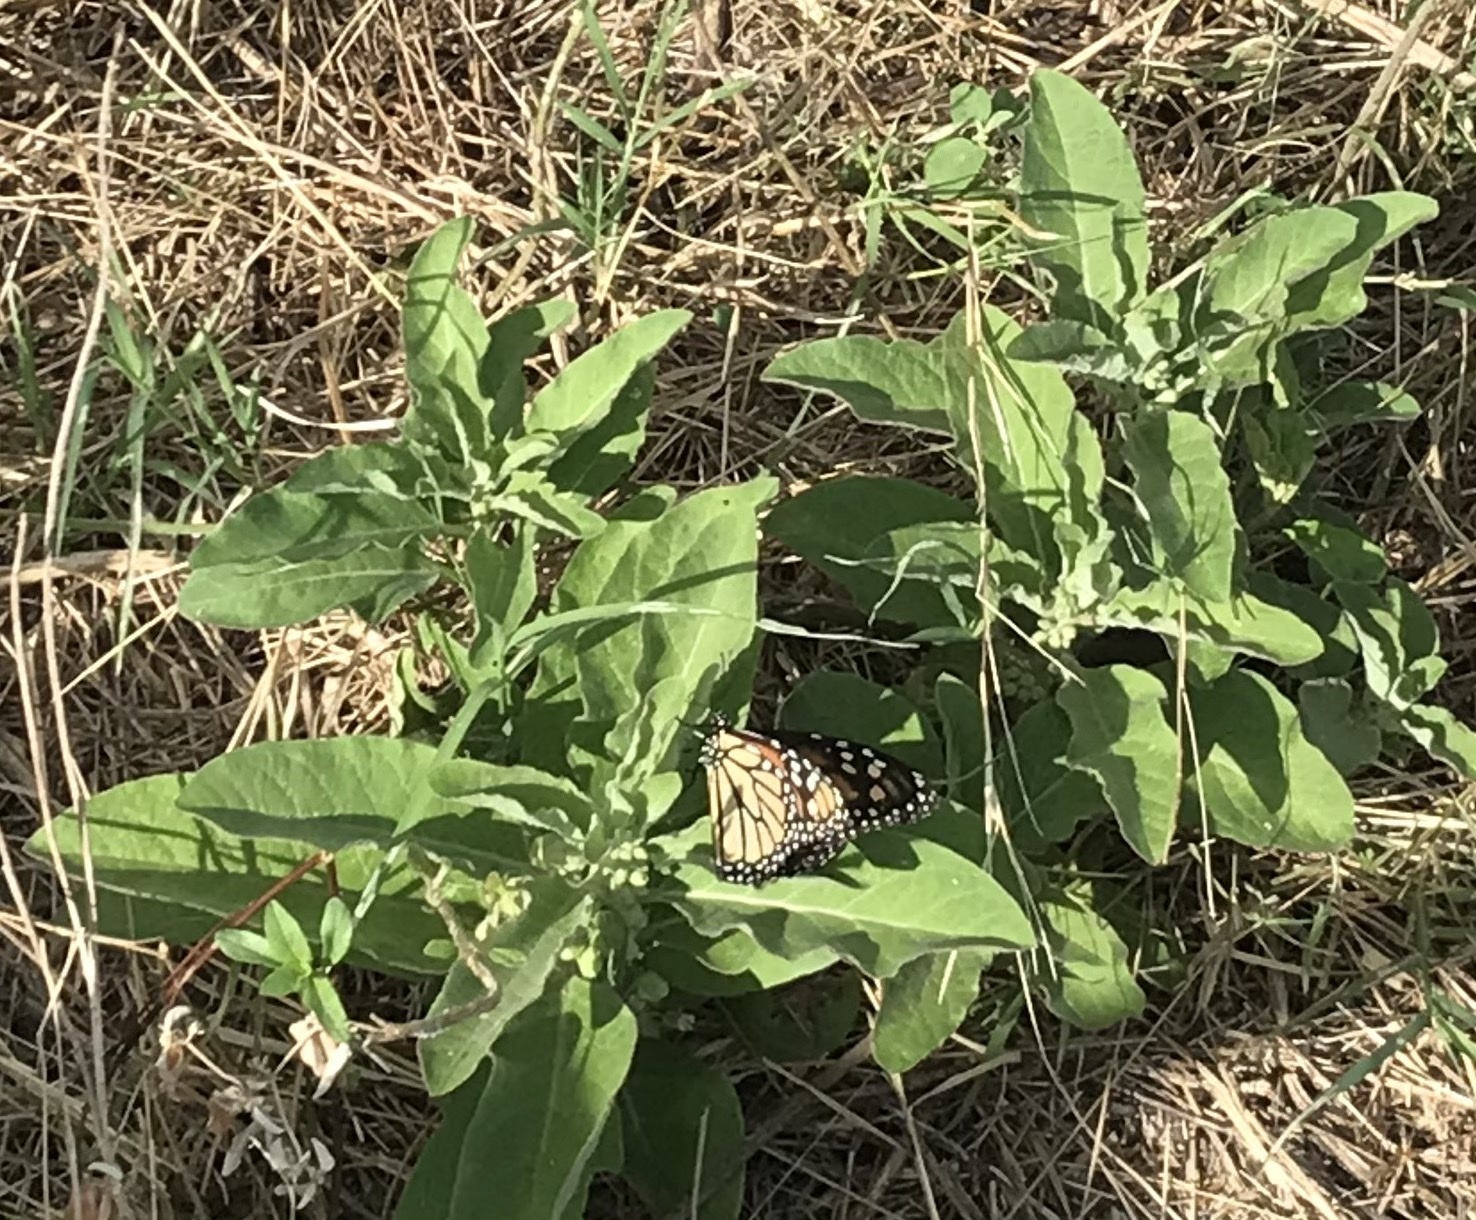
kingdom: Animalia
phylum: Arthropoda
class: Insecta
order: Lepidoptera
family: Nymphalidae
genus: Danaus
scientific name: Danaus plexippus
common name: Monarch
